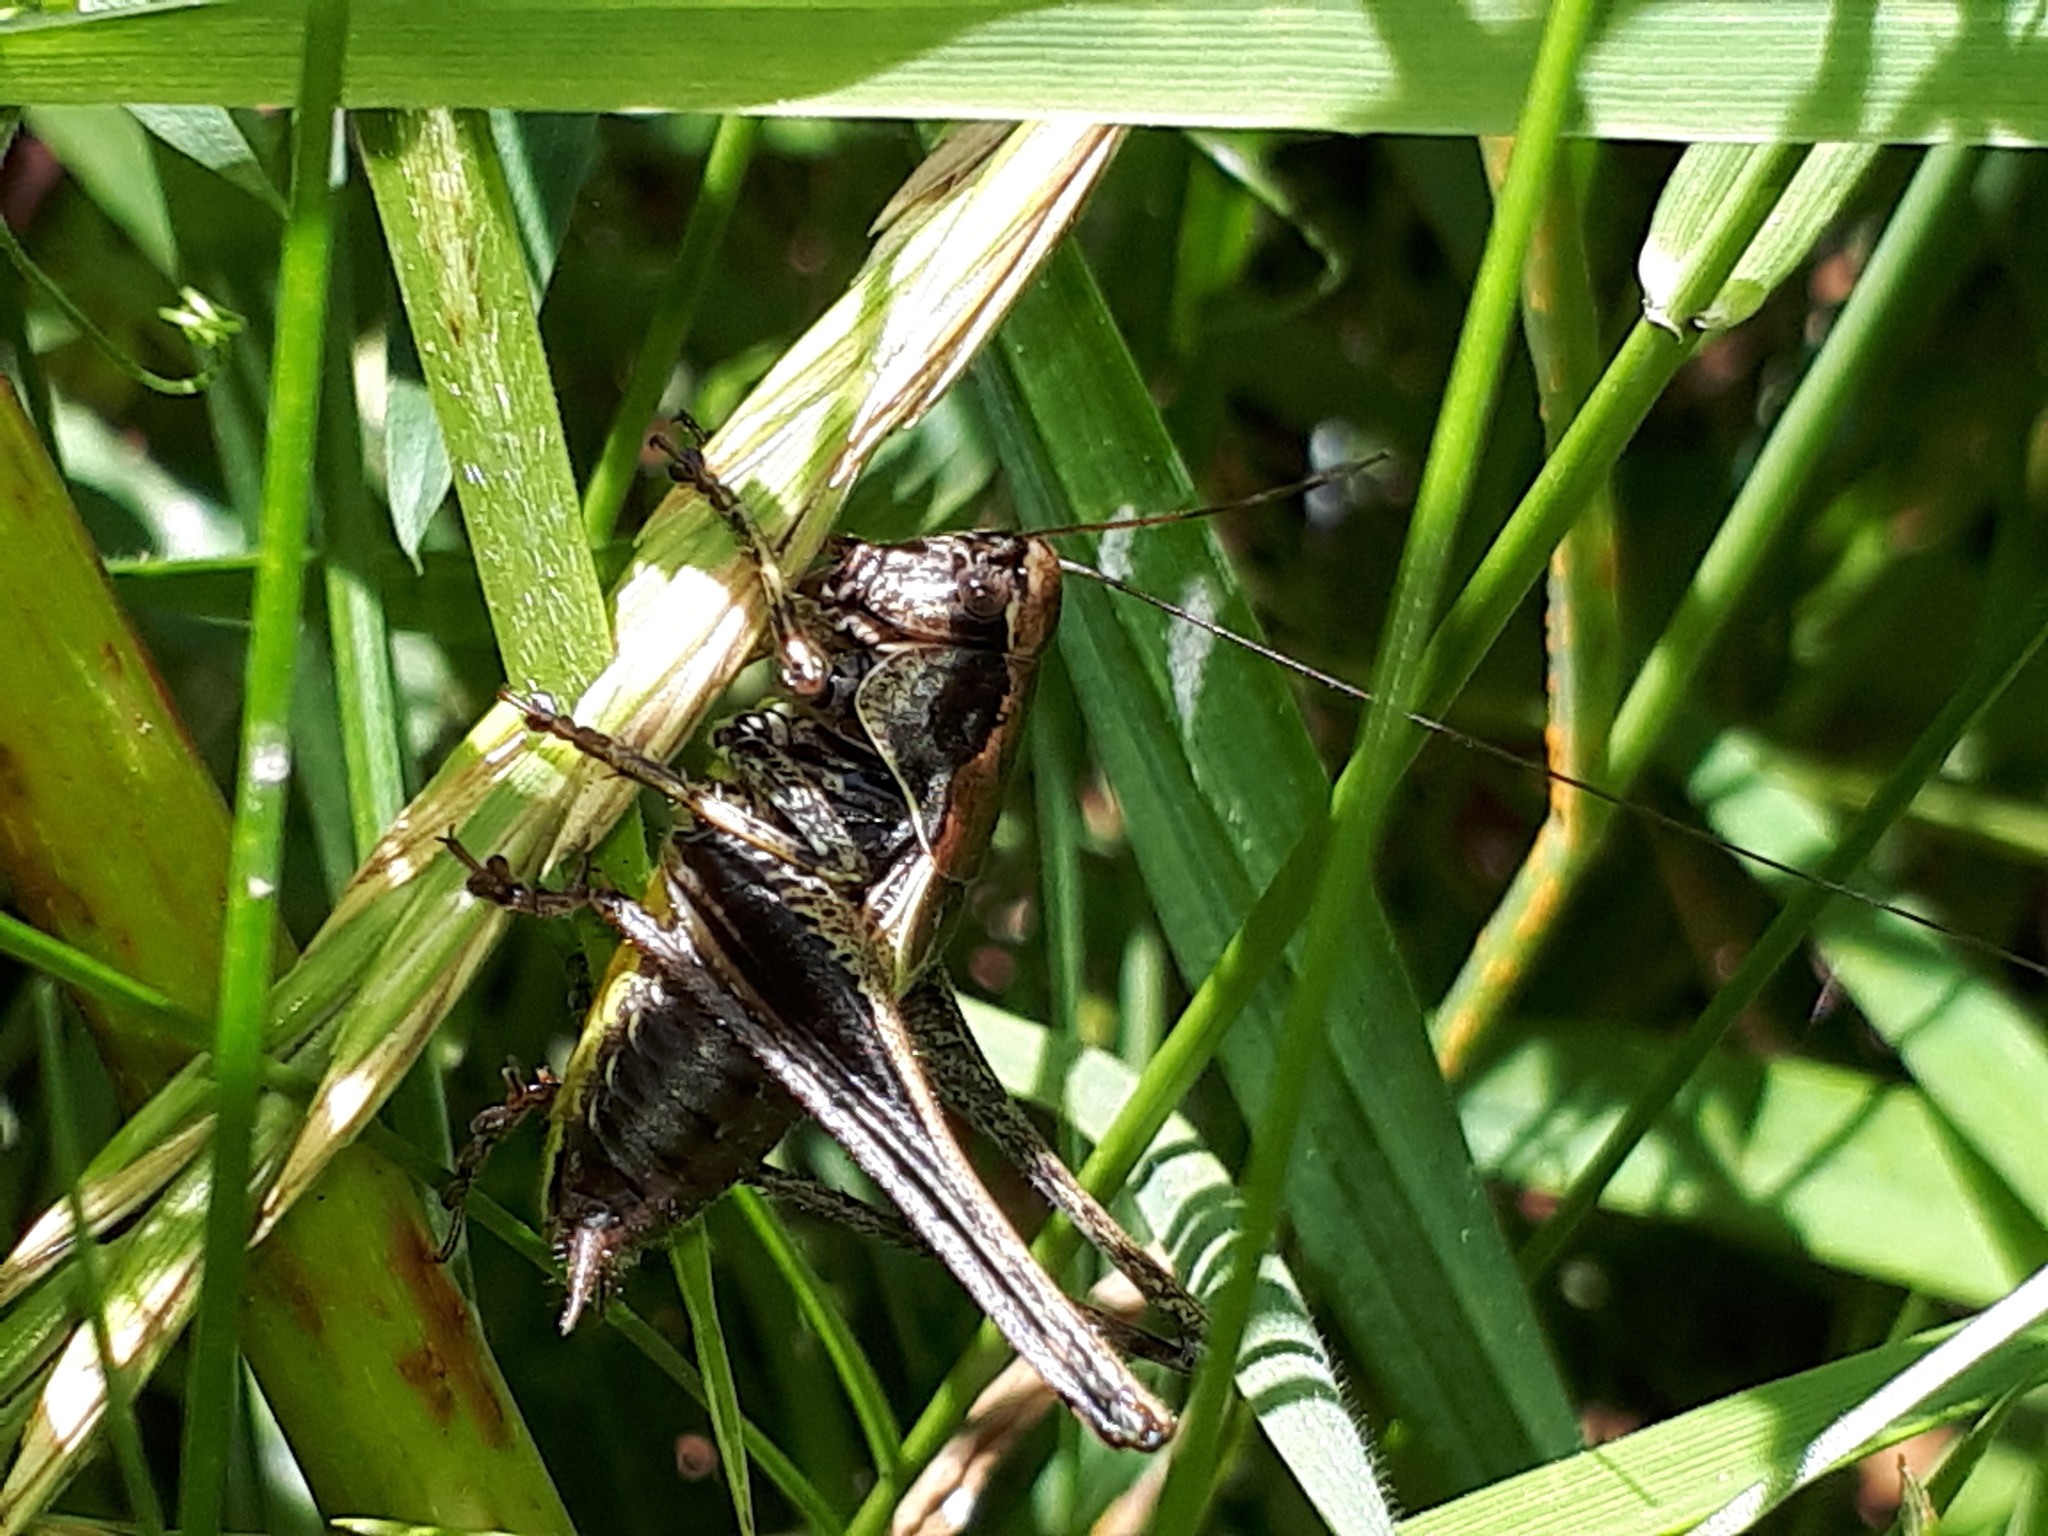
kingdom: Animalia
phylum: Arthropoda
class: Insecta
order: Orthoptera
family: Tettigoniidae
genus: Pholidoptera
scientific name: Pholidoptera griseoaptera
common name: Dark bush-cricket
